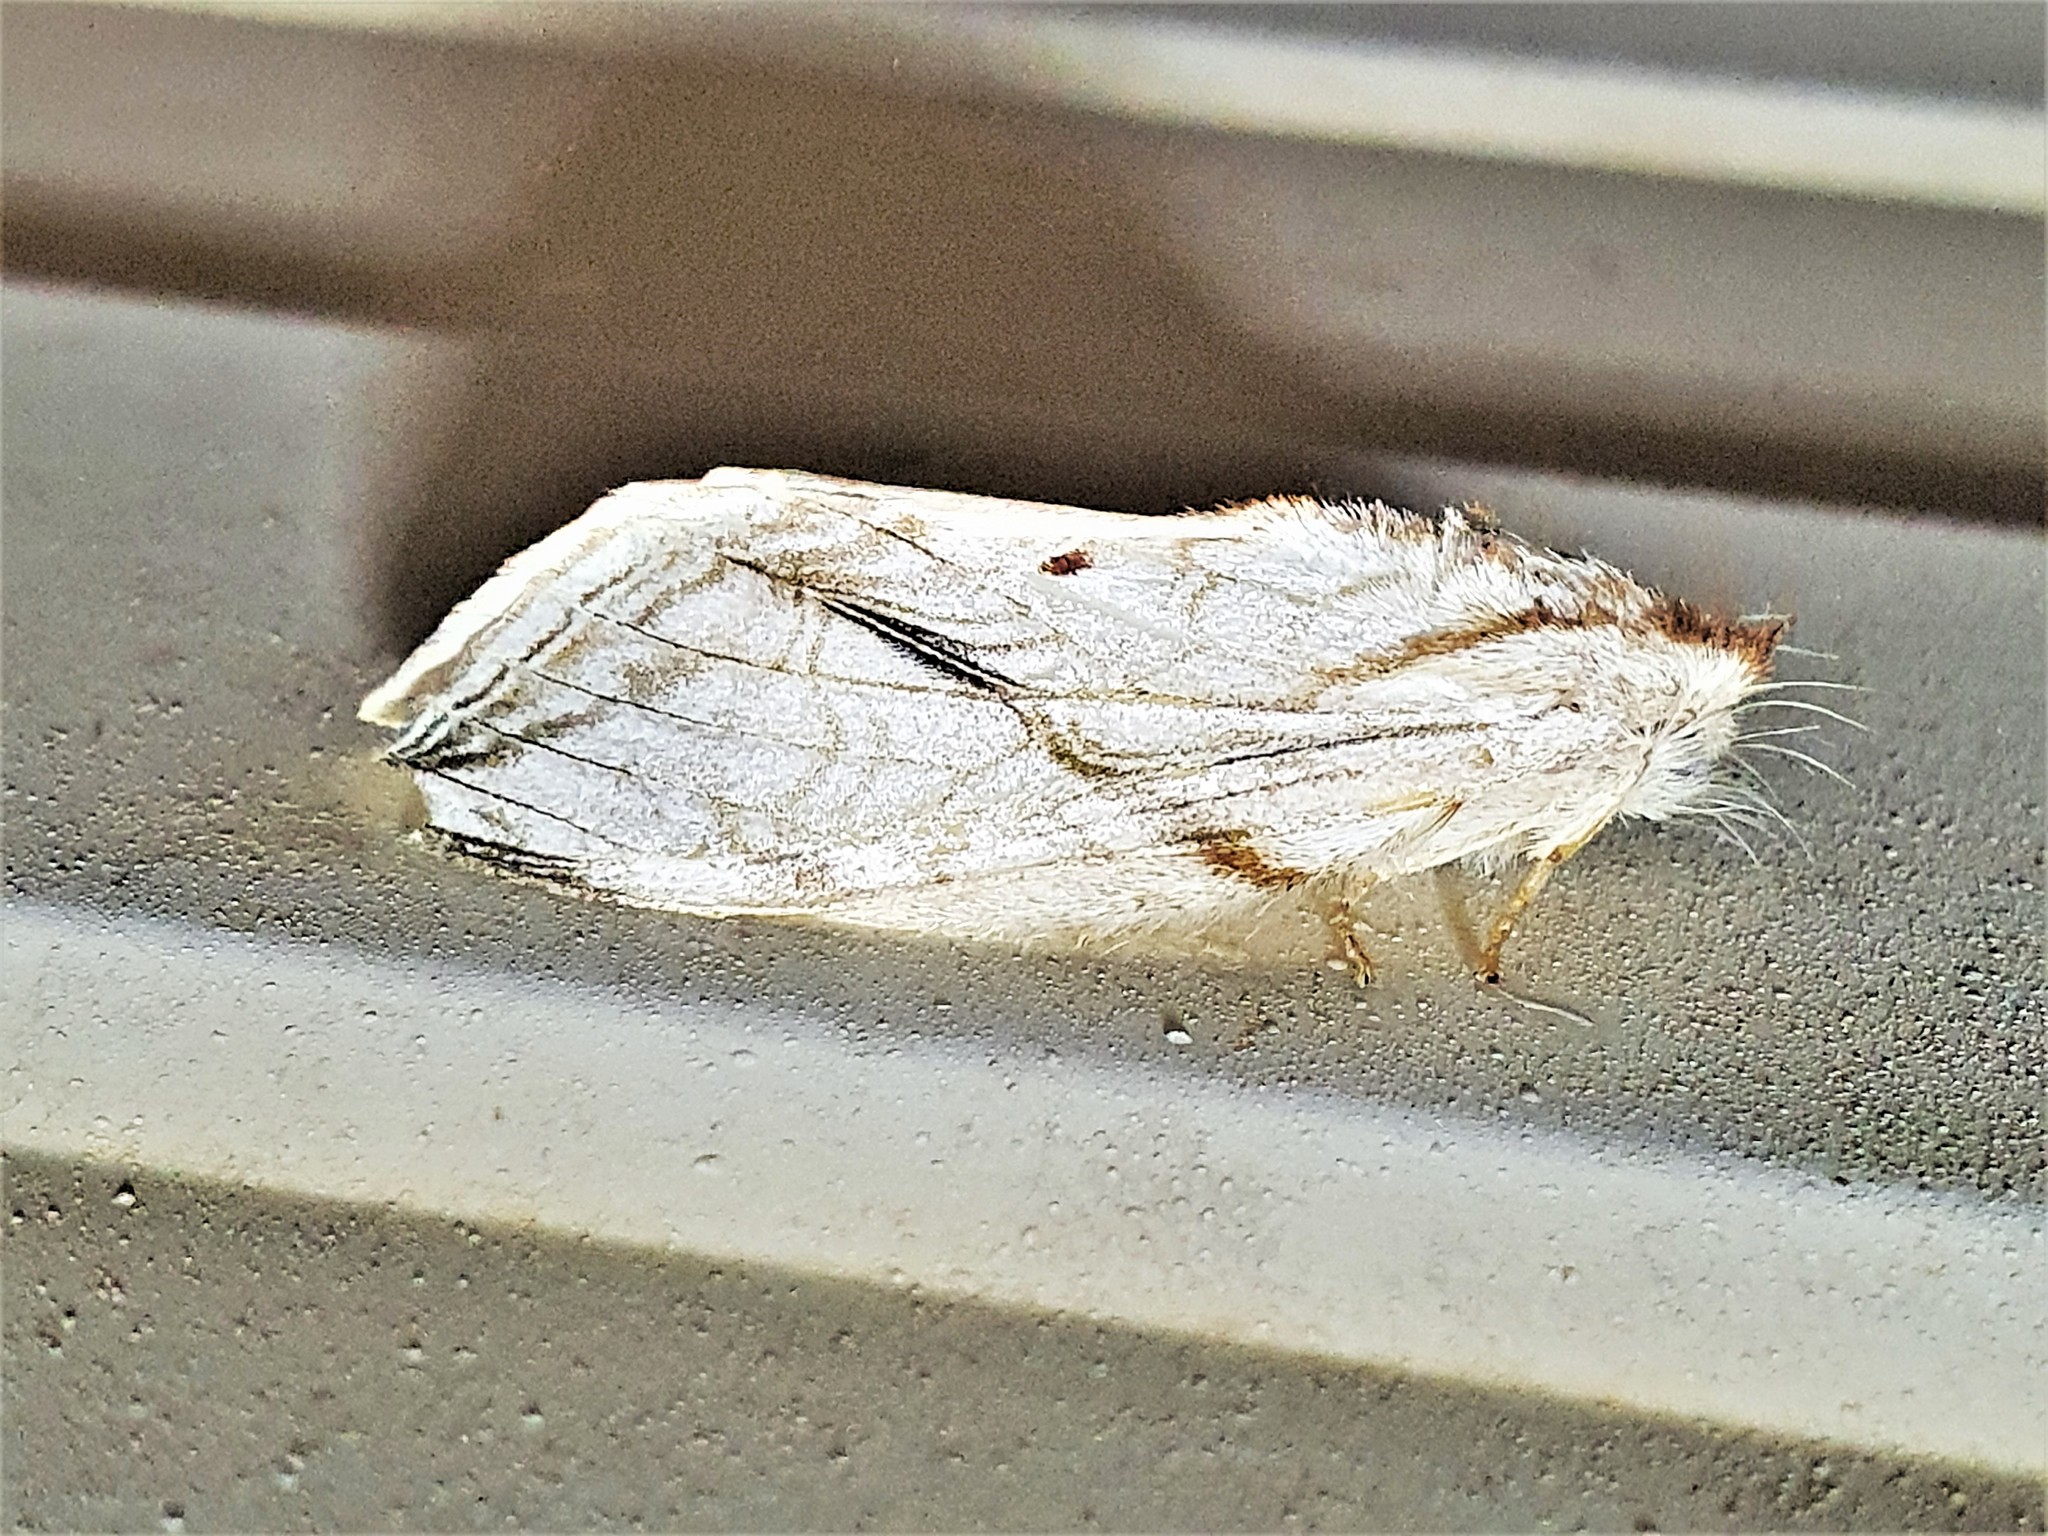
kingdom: Animalia
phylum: Arthropoda
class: Insecta
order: Lepidoptera
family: Notodontidae
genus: Trumanda
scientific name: Trumanda
